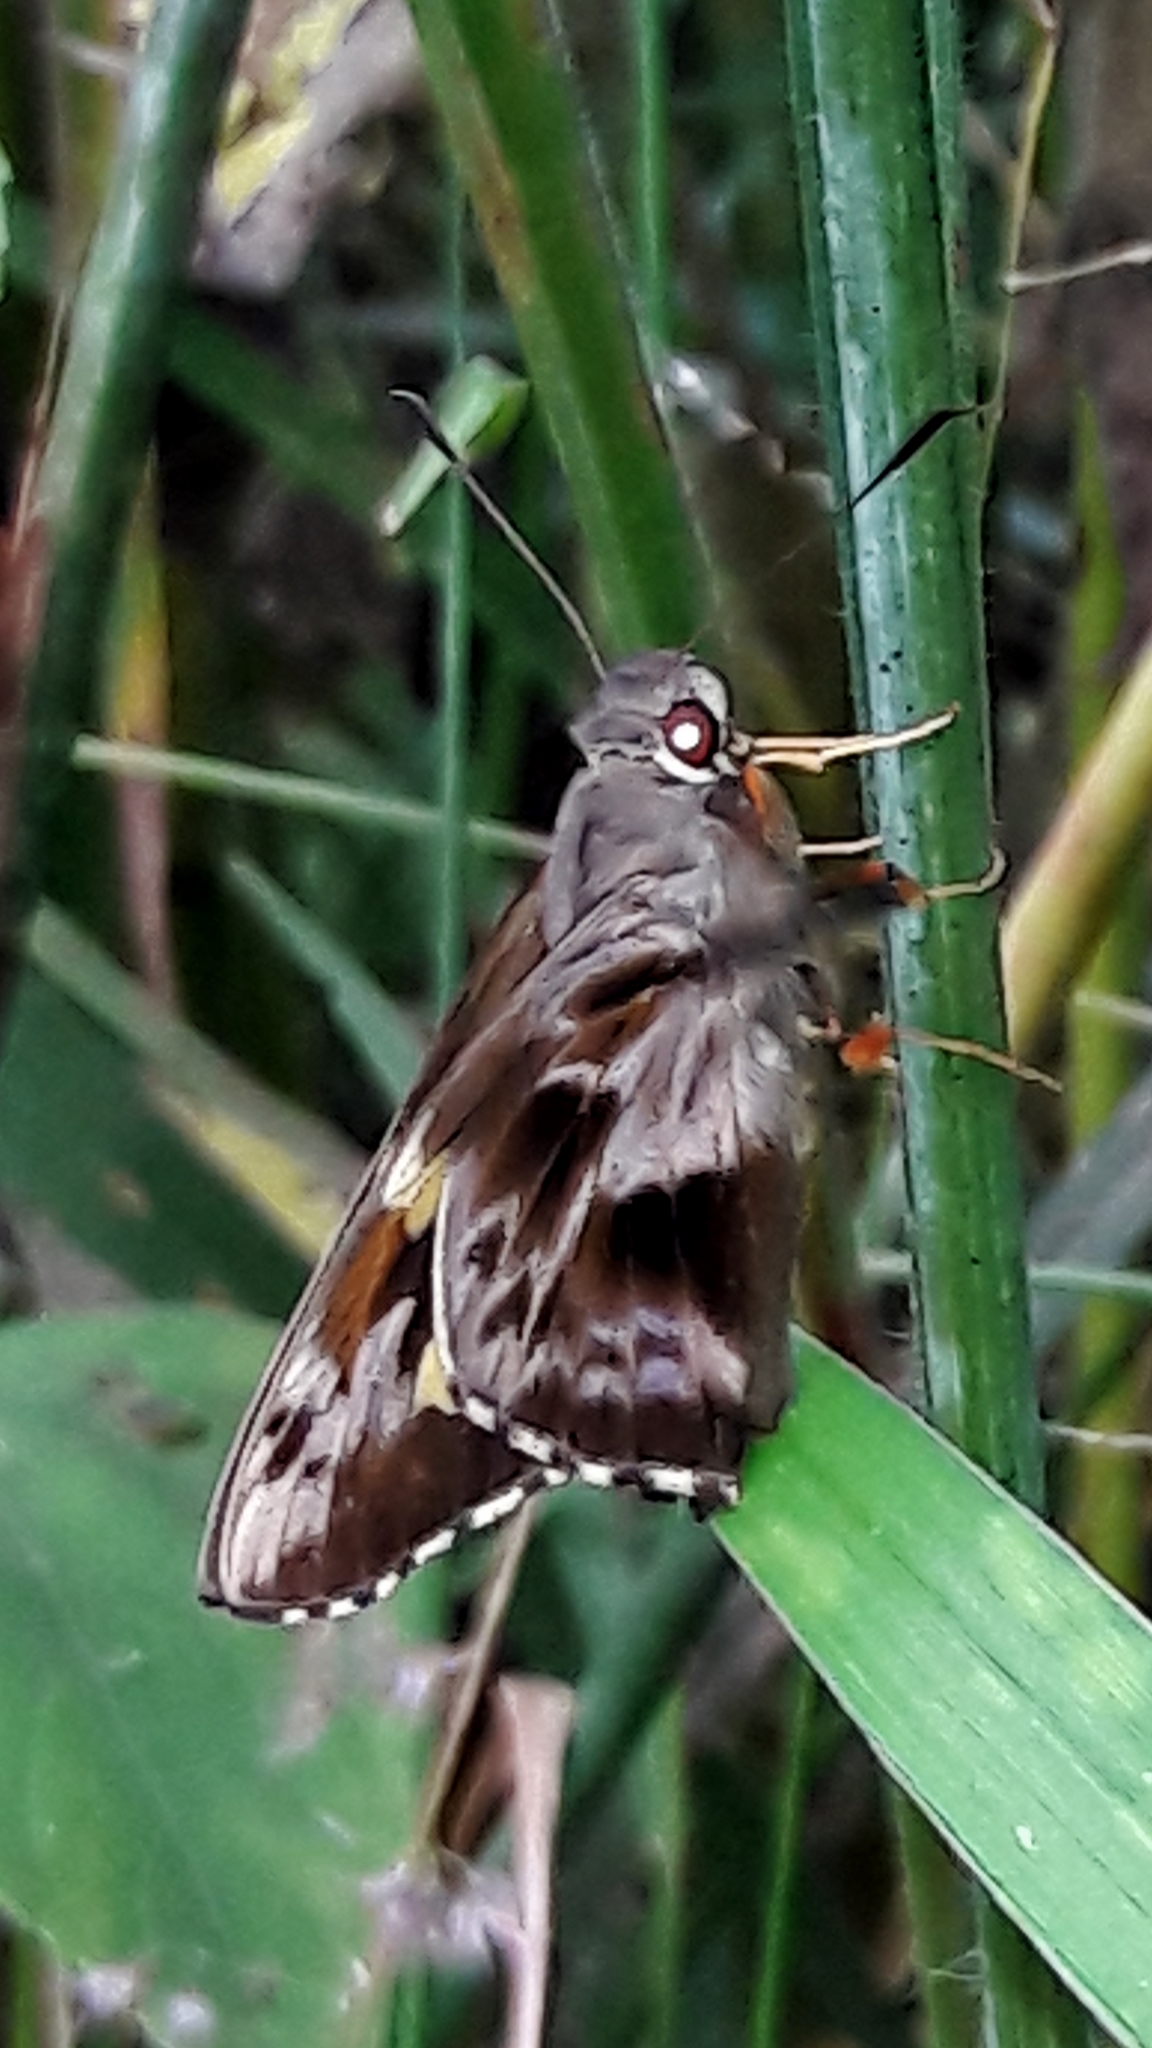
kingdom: Animalia
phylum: Arthropoda
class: Insecta
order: Lepidoptera
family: Hesperiidae
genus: Perichares
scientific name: Perichares philetes
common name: Green-backed ruby-eye
